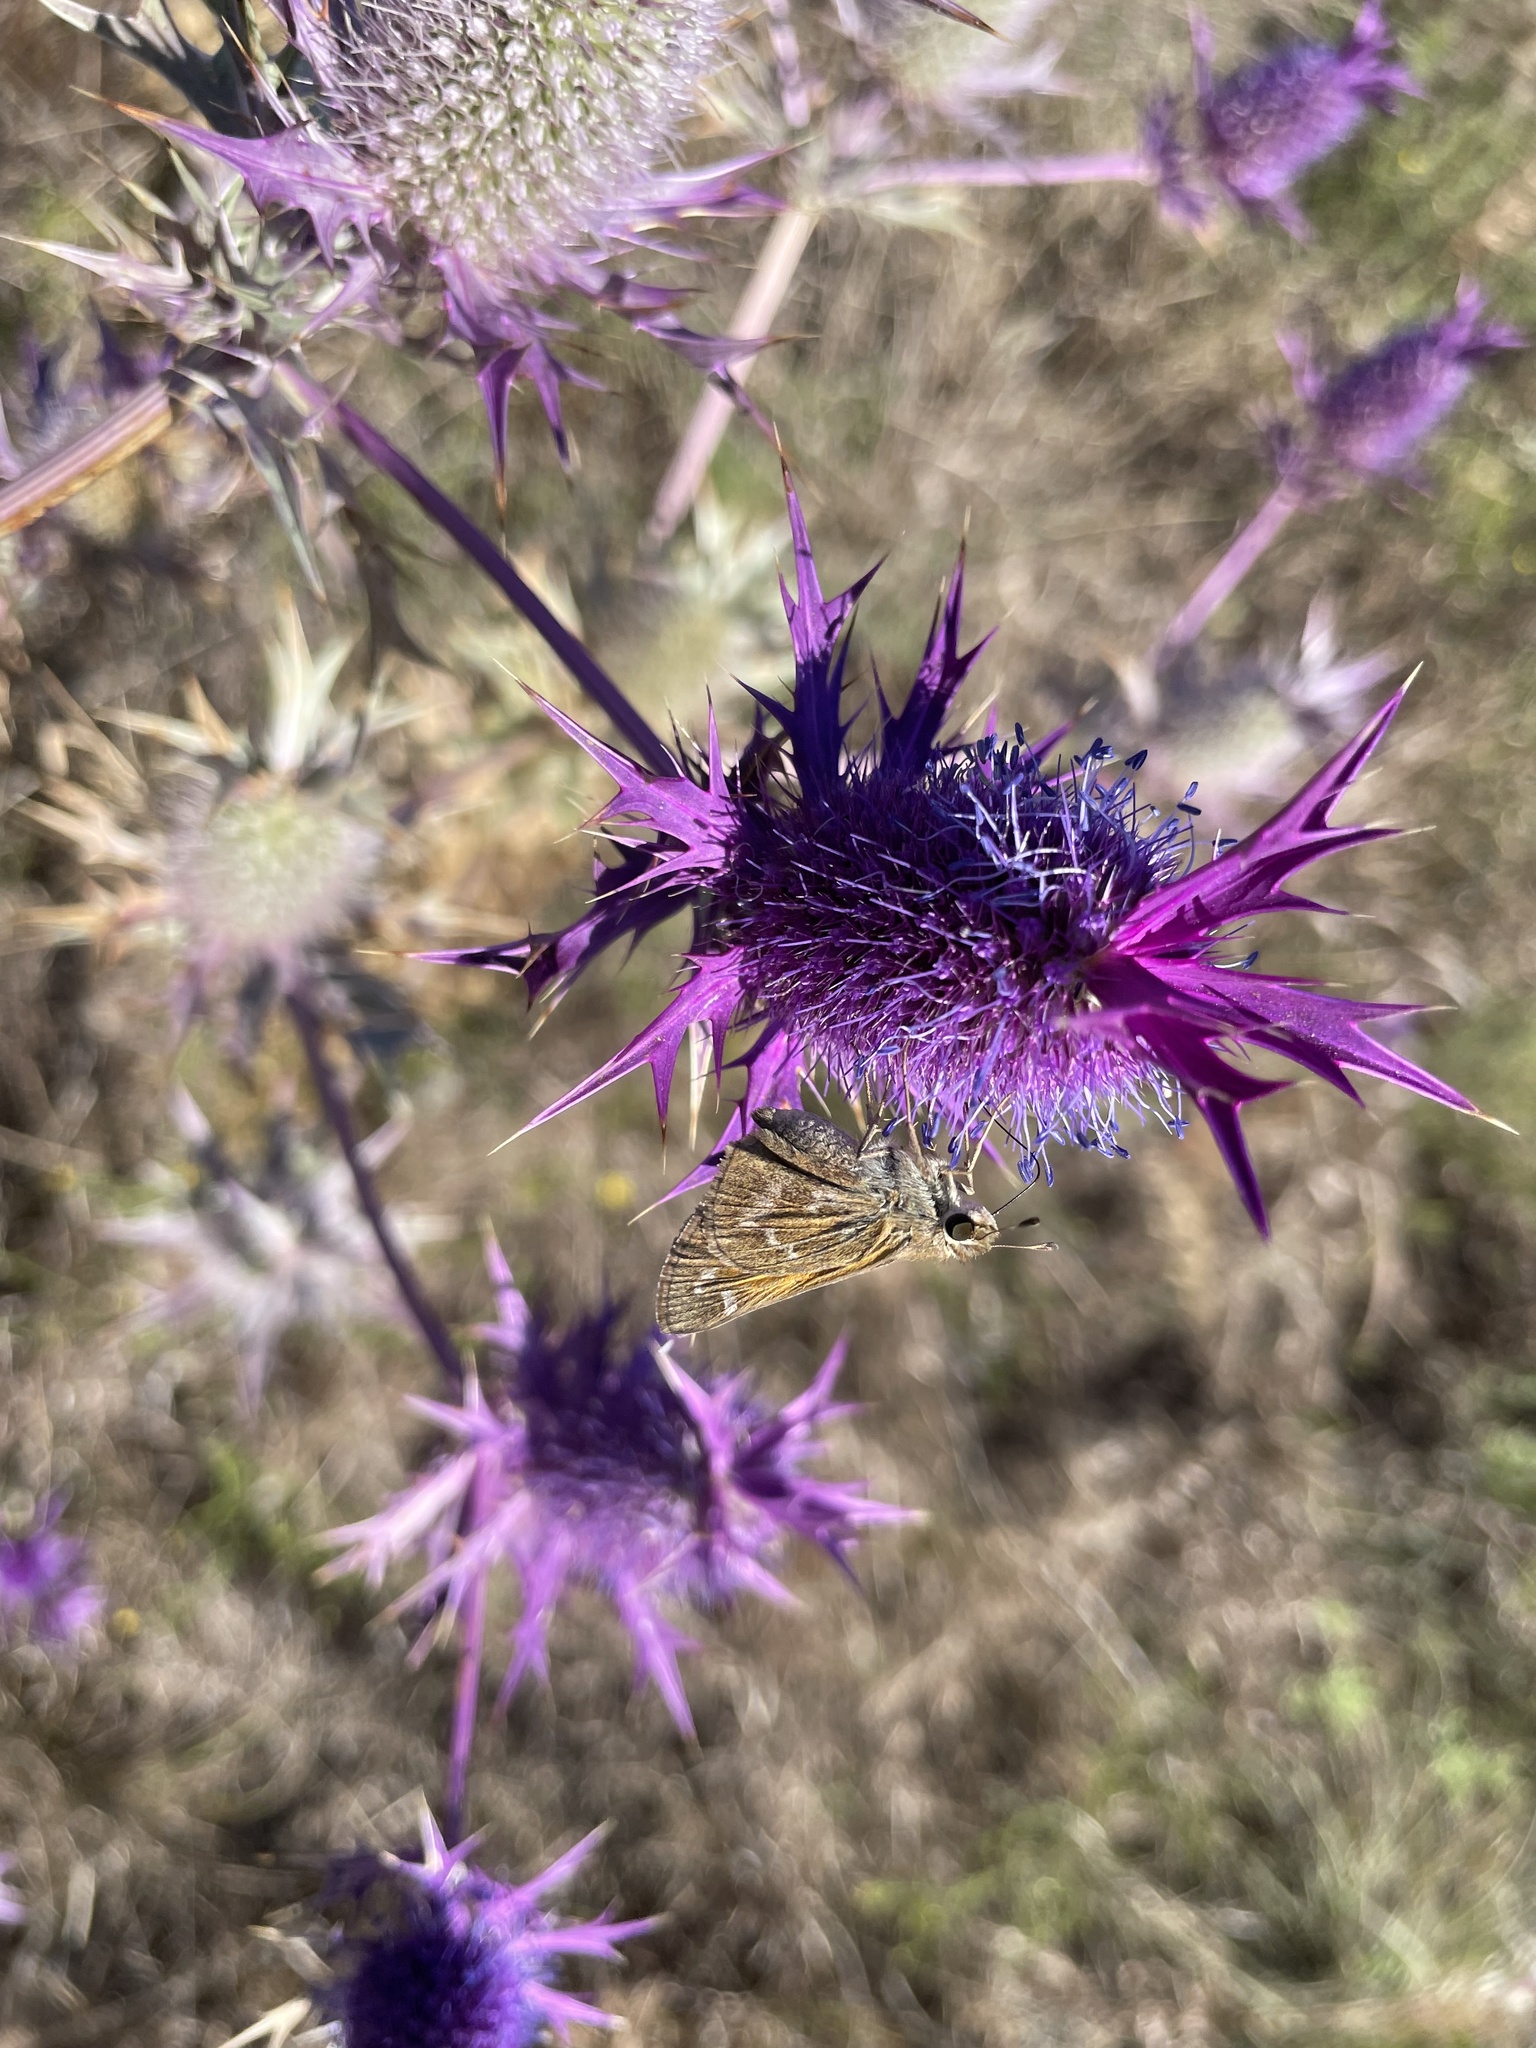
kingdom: Animalia
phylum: Arthropoda
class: Insecta
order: Lepidoptera
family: Hesperiidae
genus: Atalopedes
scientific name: Atalopedes
